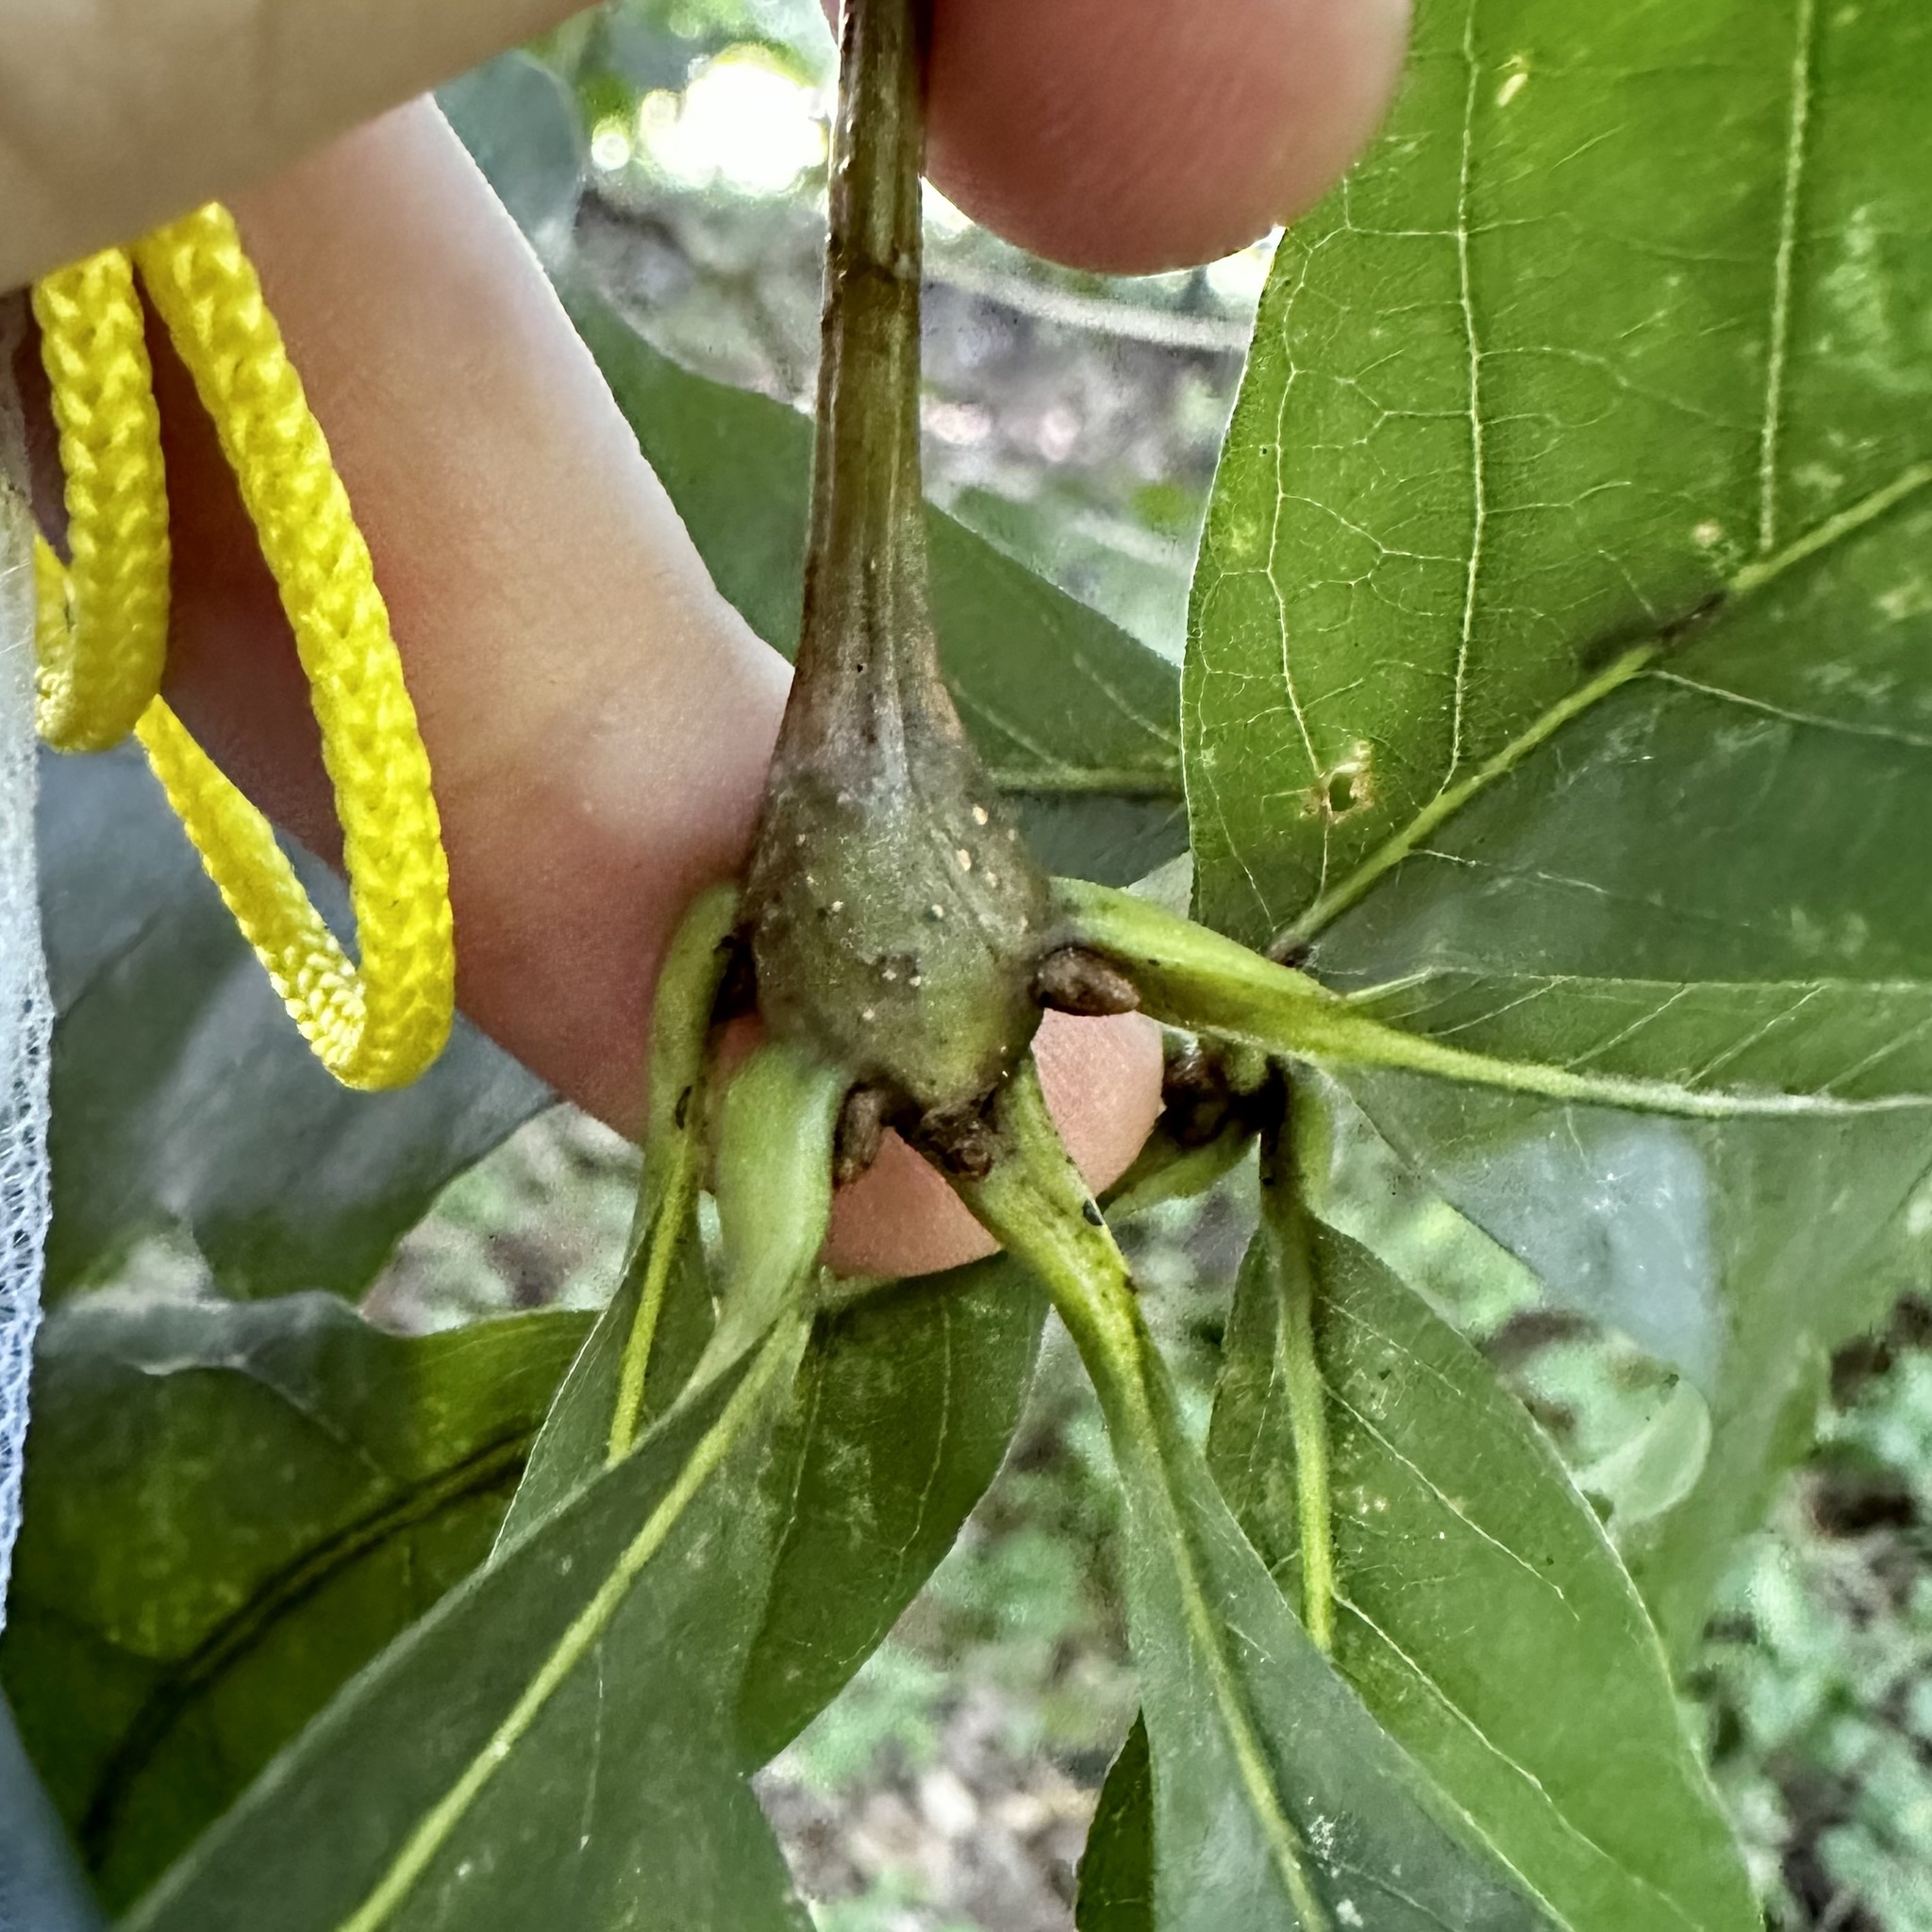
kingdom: Animalia
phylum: Arthropoda
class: Insecta
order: Hymenoptera
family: Cynipidae
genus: Callirhytis
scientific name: Callirhytis clavula
